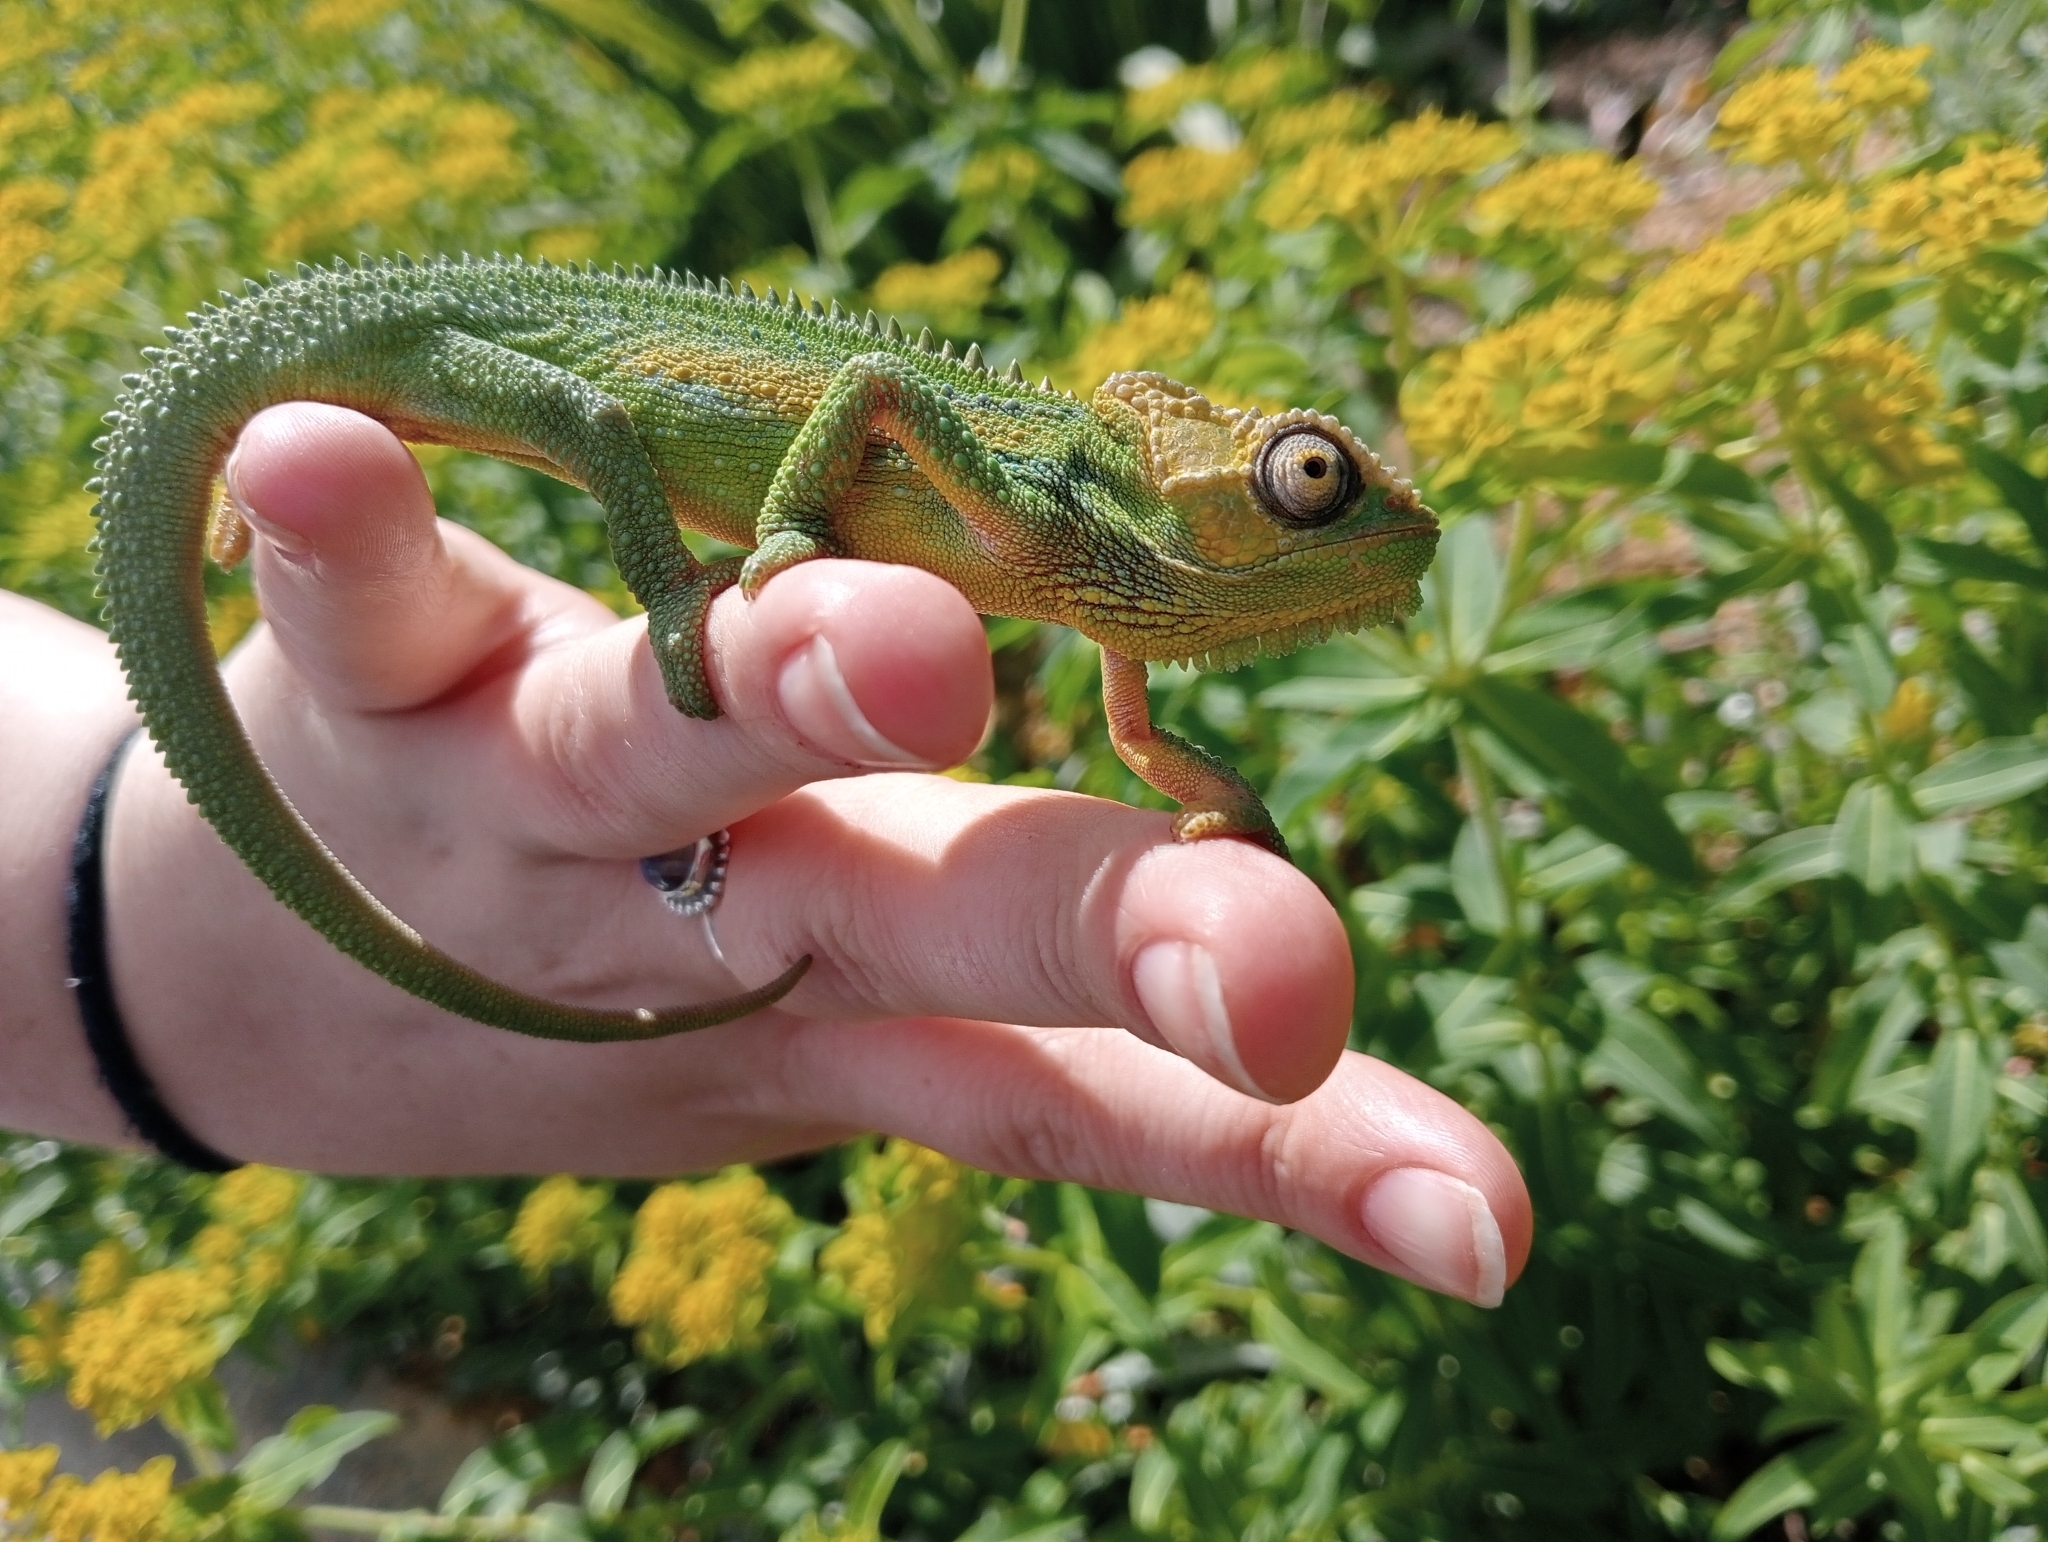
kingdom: Animalia
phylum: Chordata
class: Squamata
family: Chamaeleonidae
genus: Bradypodion
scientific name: Bradypodion pumilum
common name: Cape dwarf chameleon
